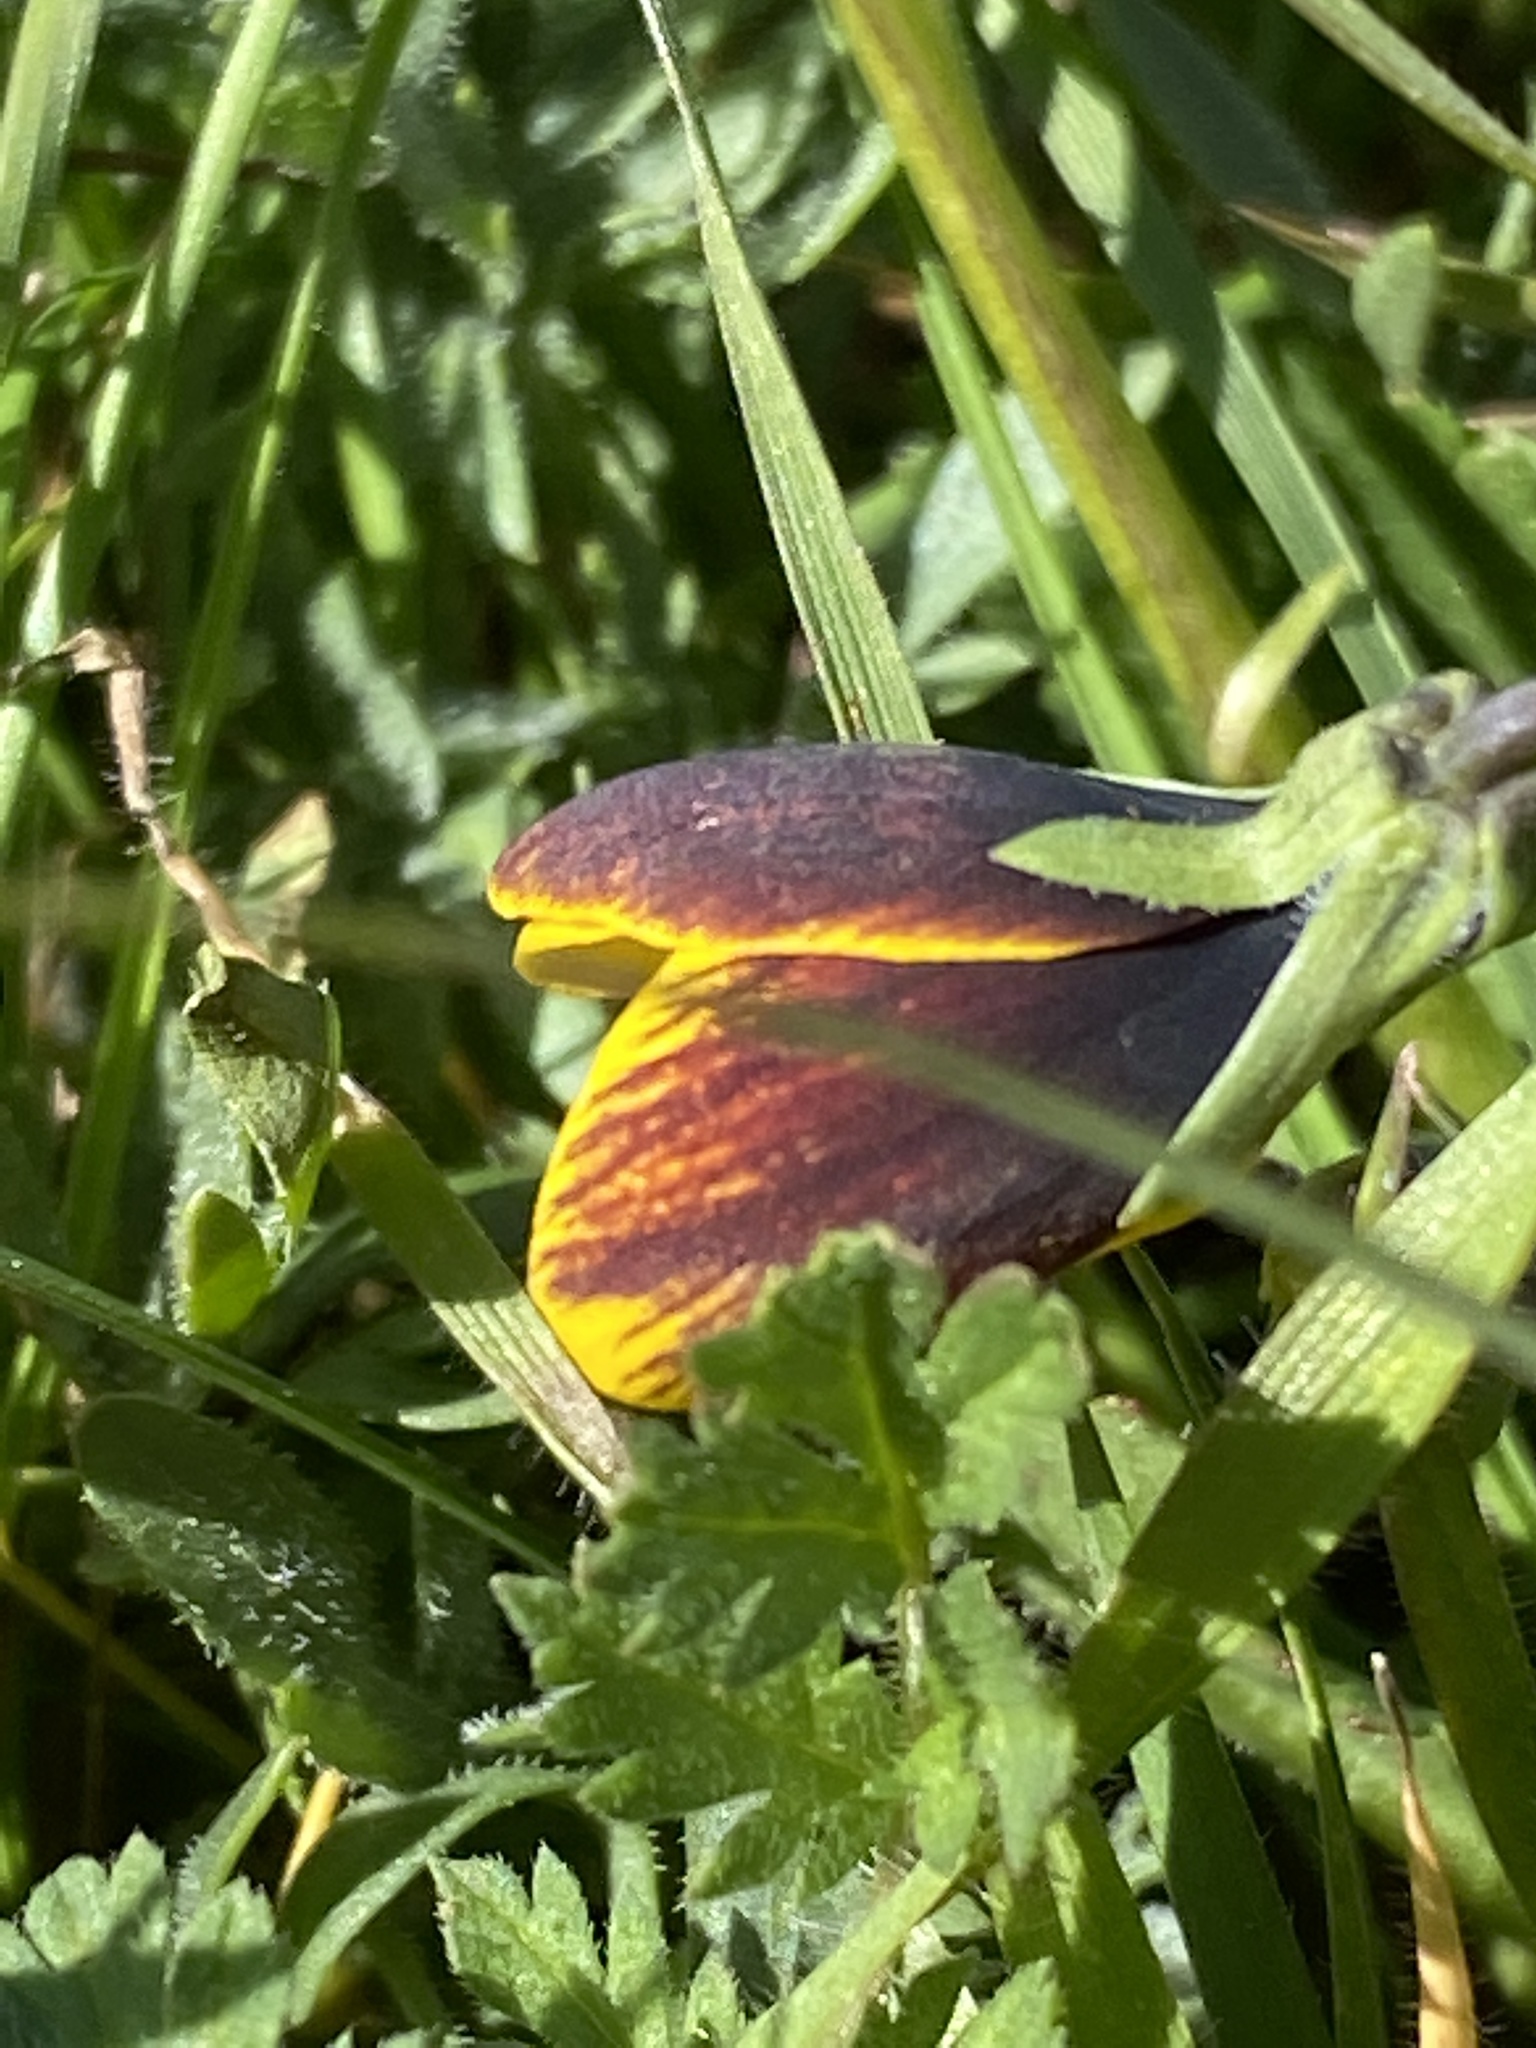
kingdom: Plantae
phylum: Tracheophyta
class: Magnoliopsida
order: Malpighiales
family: Violaceae
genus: Viola
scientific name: Viola douglasii
